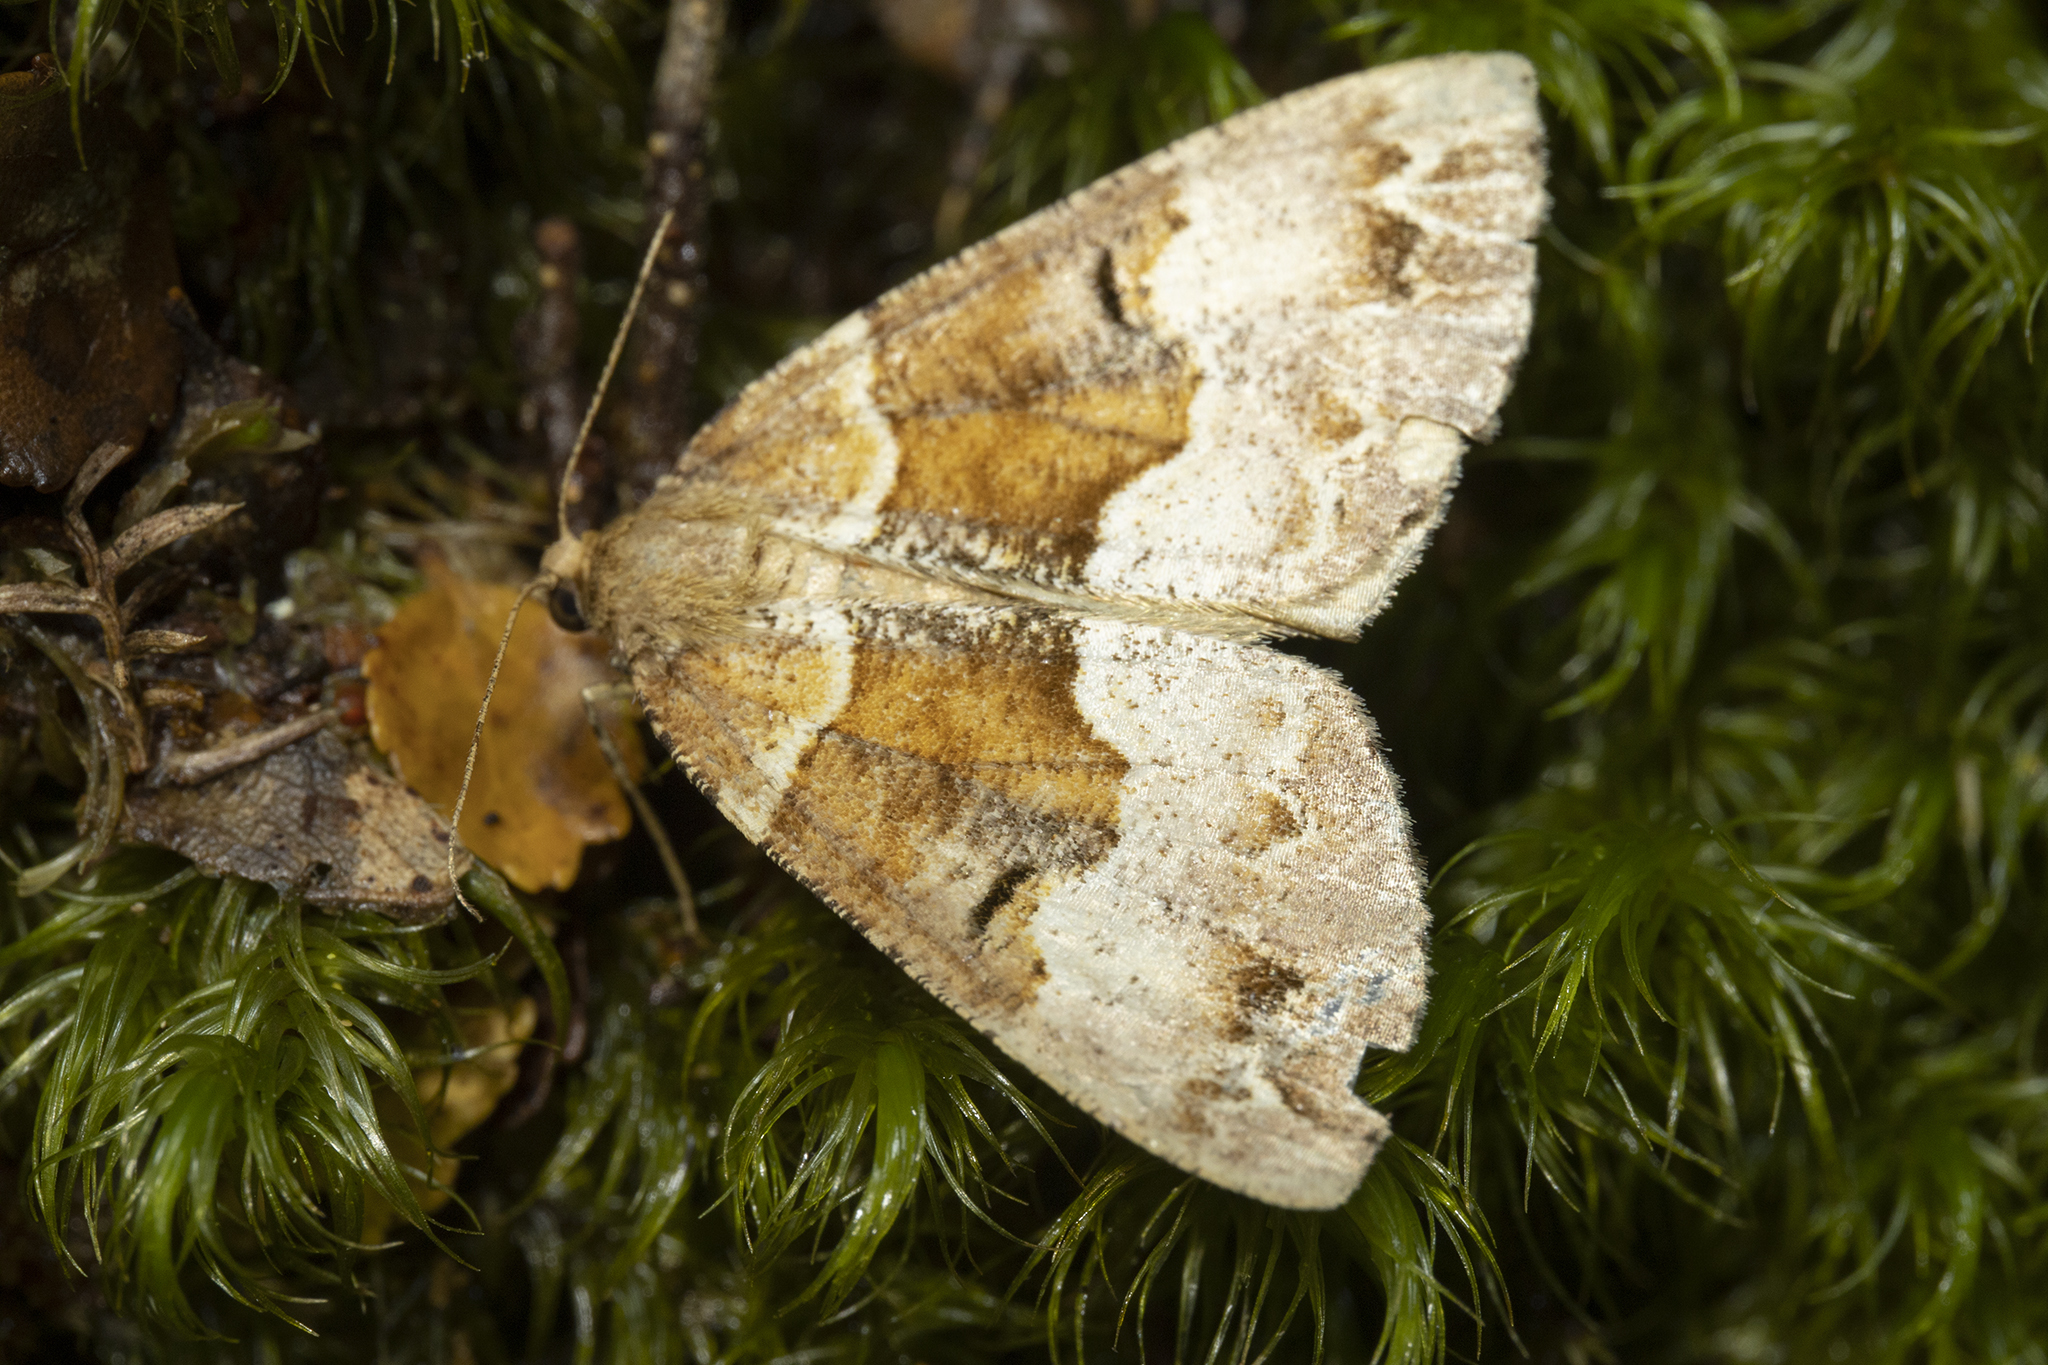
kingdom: Animalia
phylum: Arthropoda
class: Insecta
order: Lepidoptera
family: Geometridae
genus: Pseudocoremia
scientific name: Pseudocoremia fascialata
